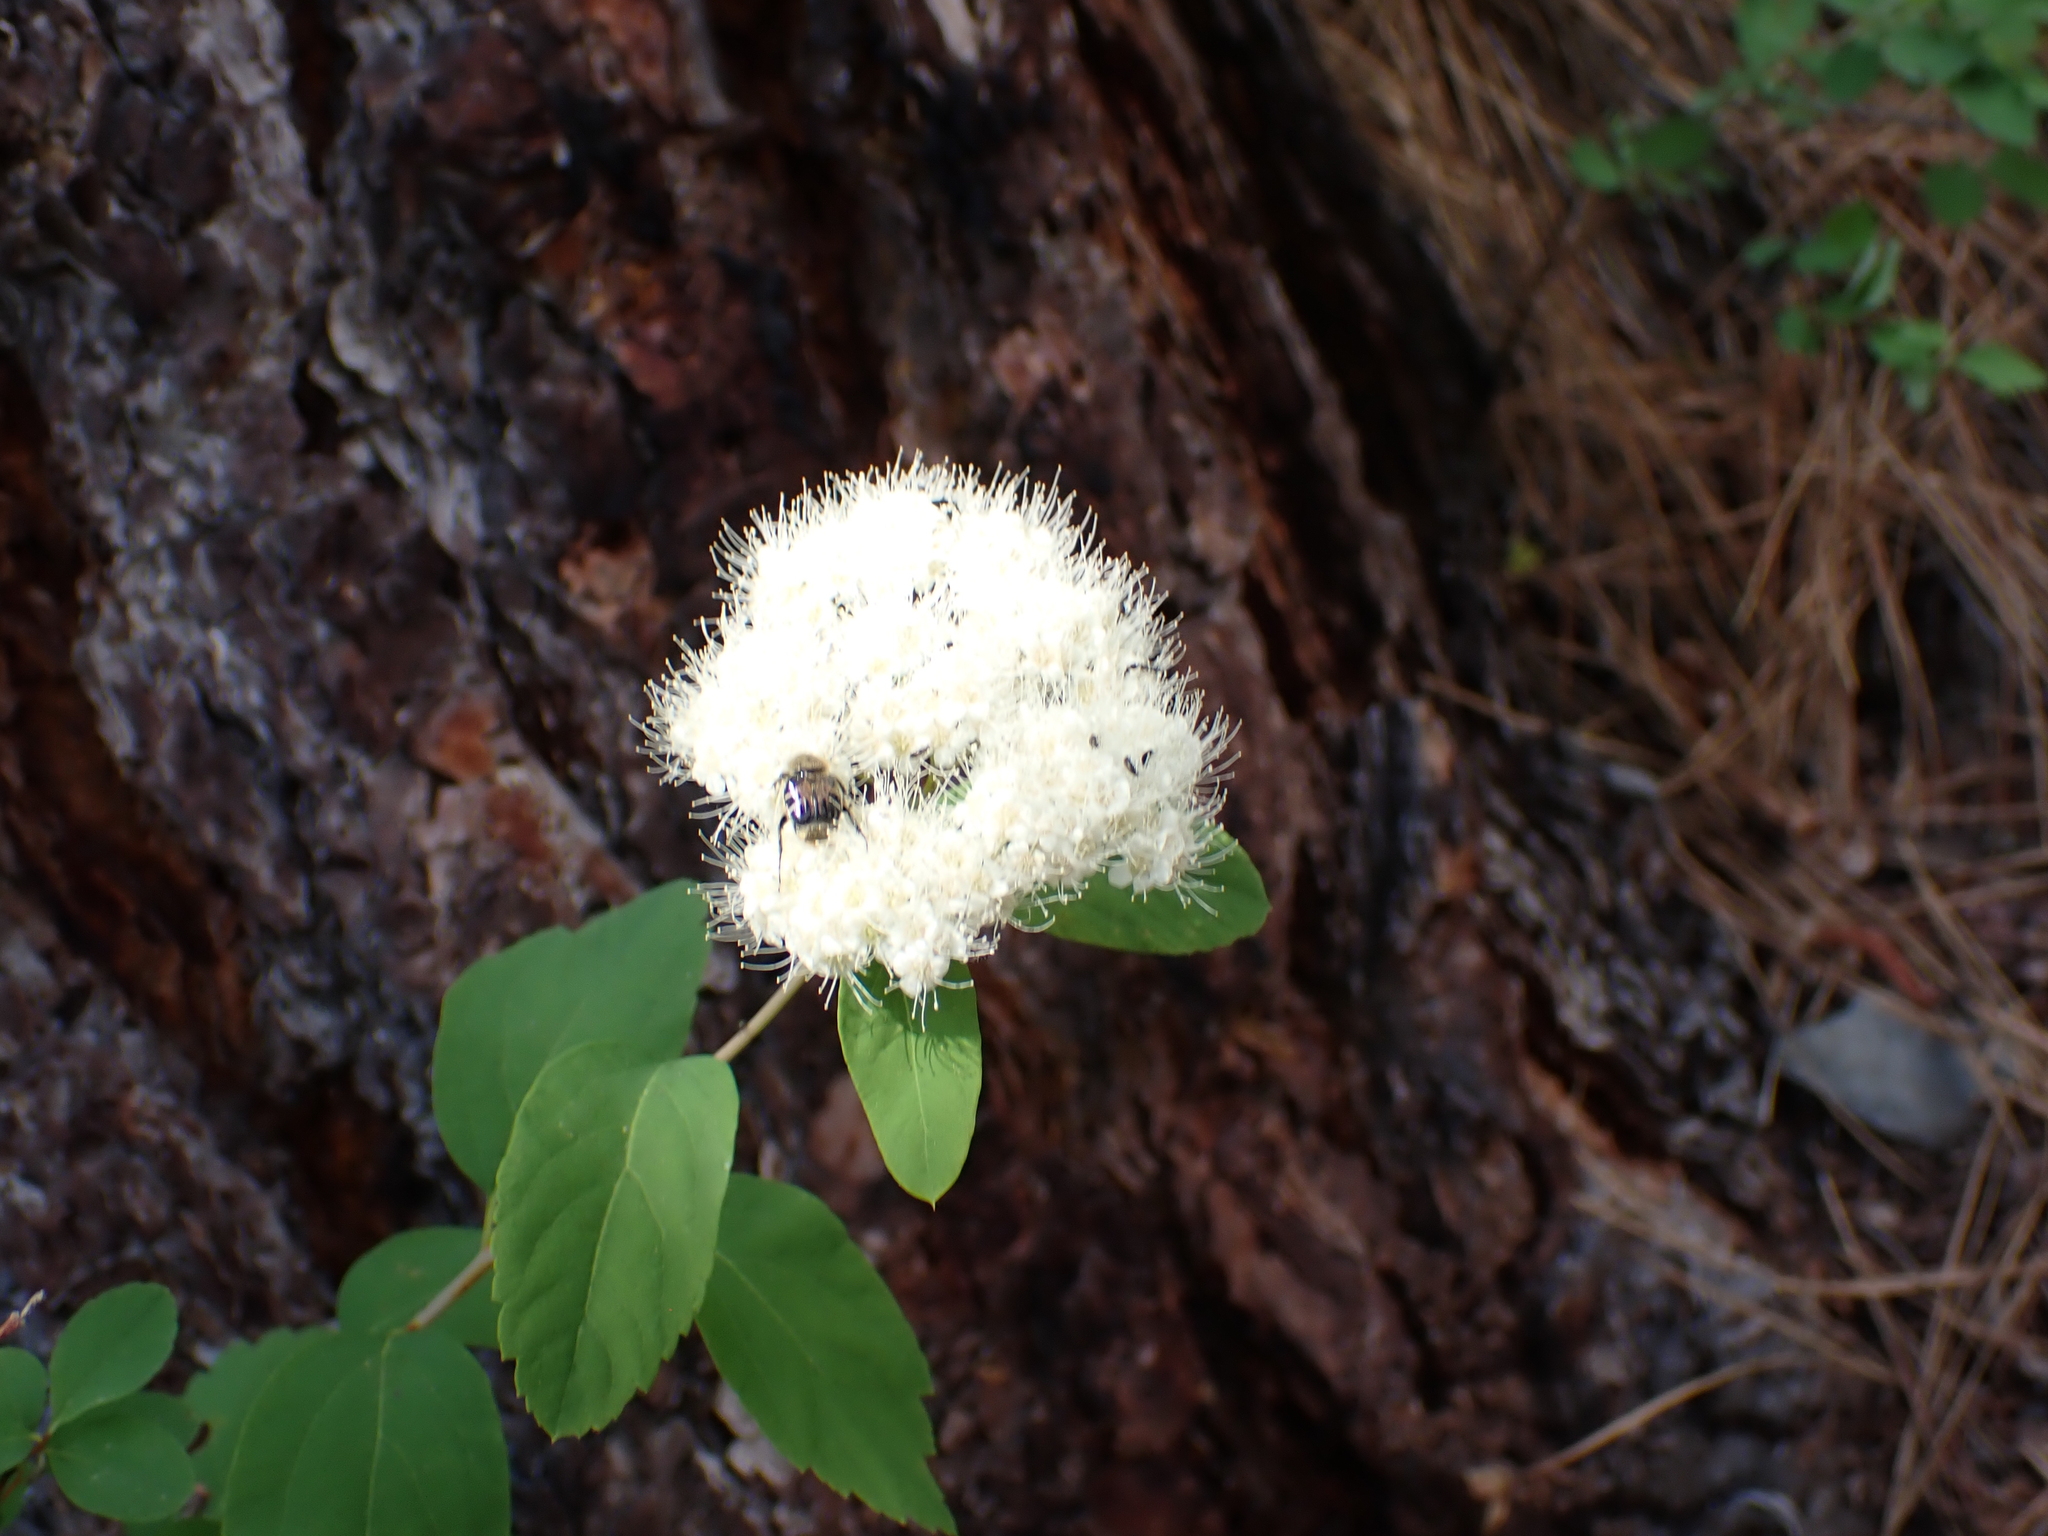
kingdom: Plantae
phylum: Tracheophyta
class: Magnoliopsida
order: Rosales
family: Rosaceae
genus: Spiraea
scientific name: Spiraea lucida
